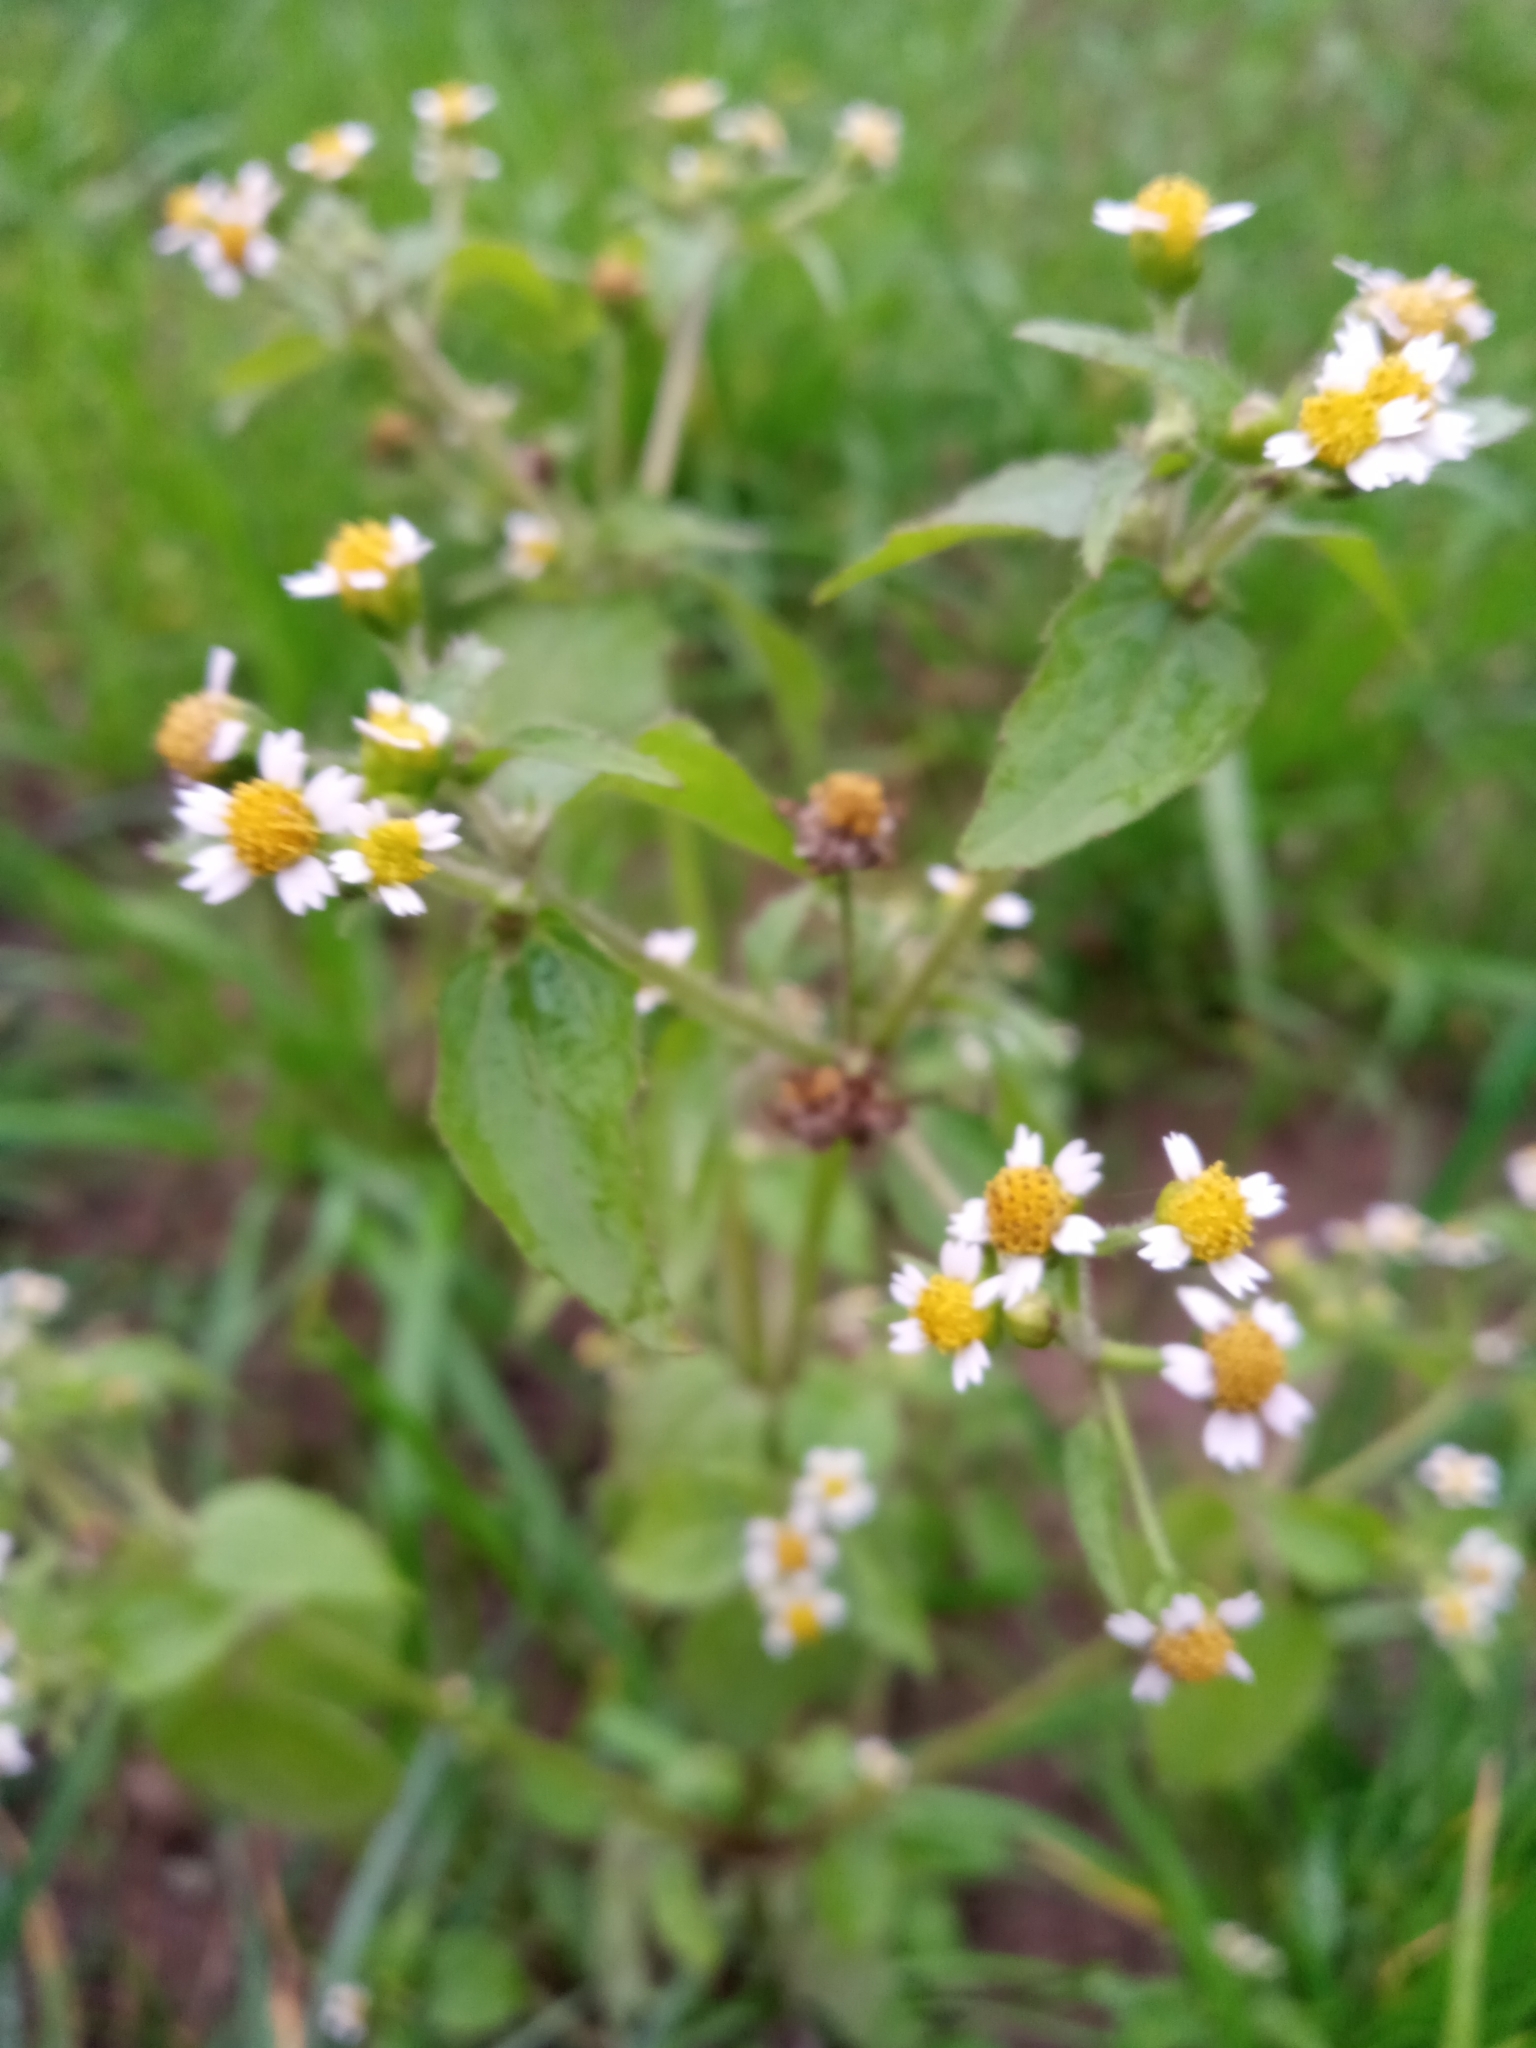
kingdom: Plantae
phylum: Tracheophyta
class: Magnoliopsida
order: Asterales
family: Asteraceae
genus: Galinsoga
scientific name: Galinsoga quadriradiata
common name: Shaggy soldier
